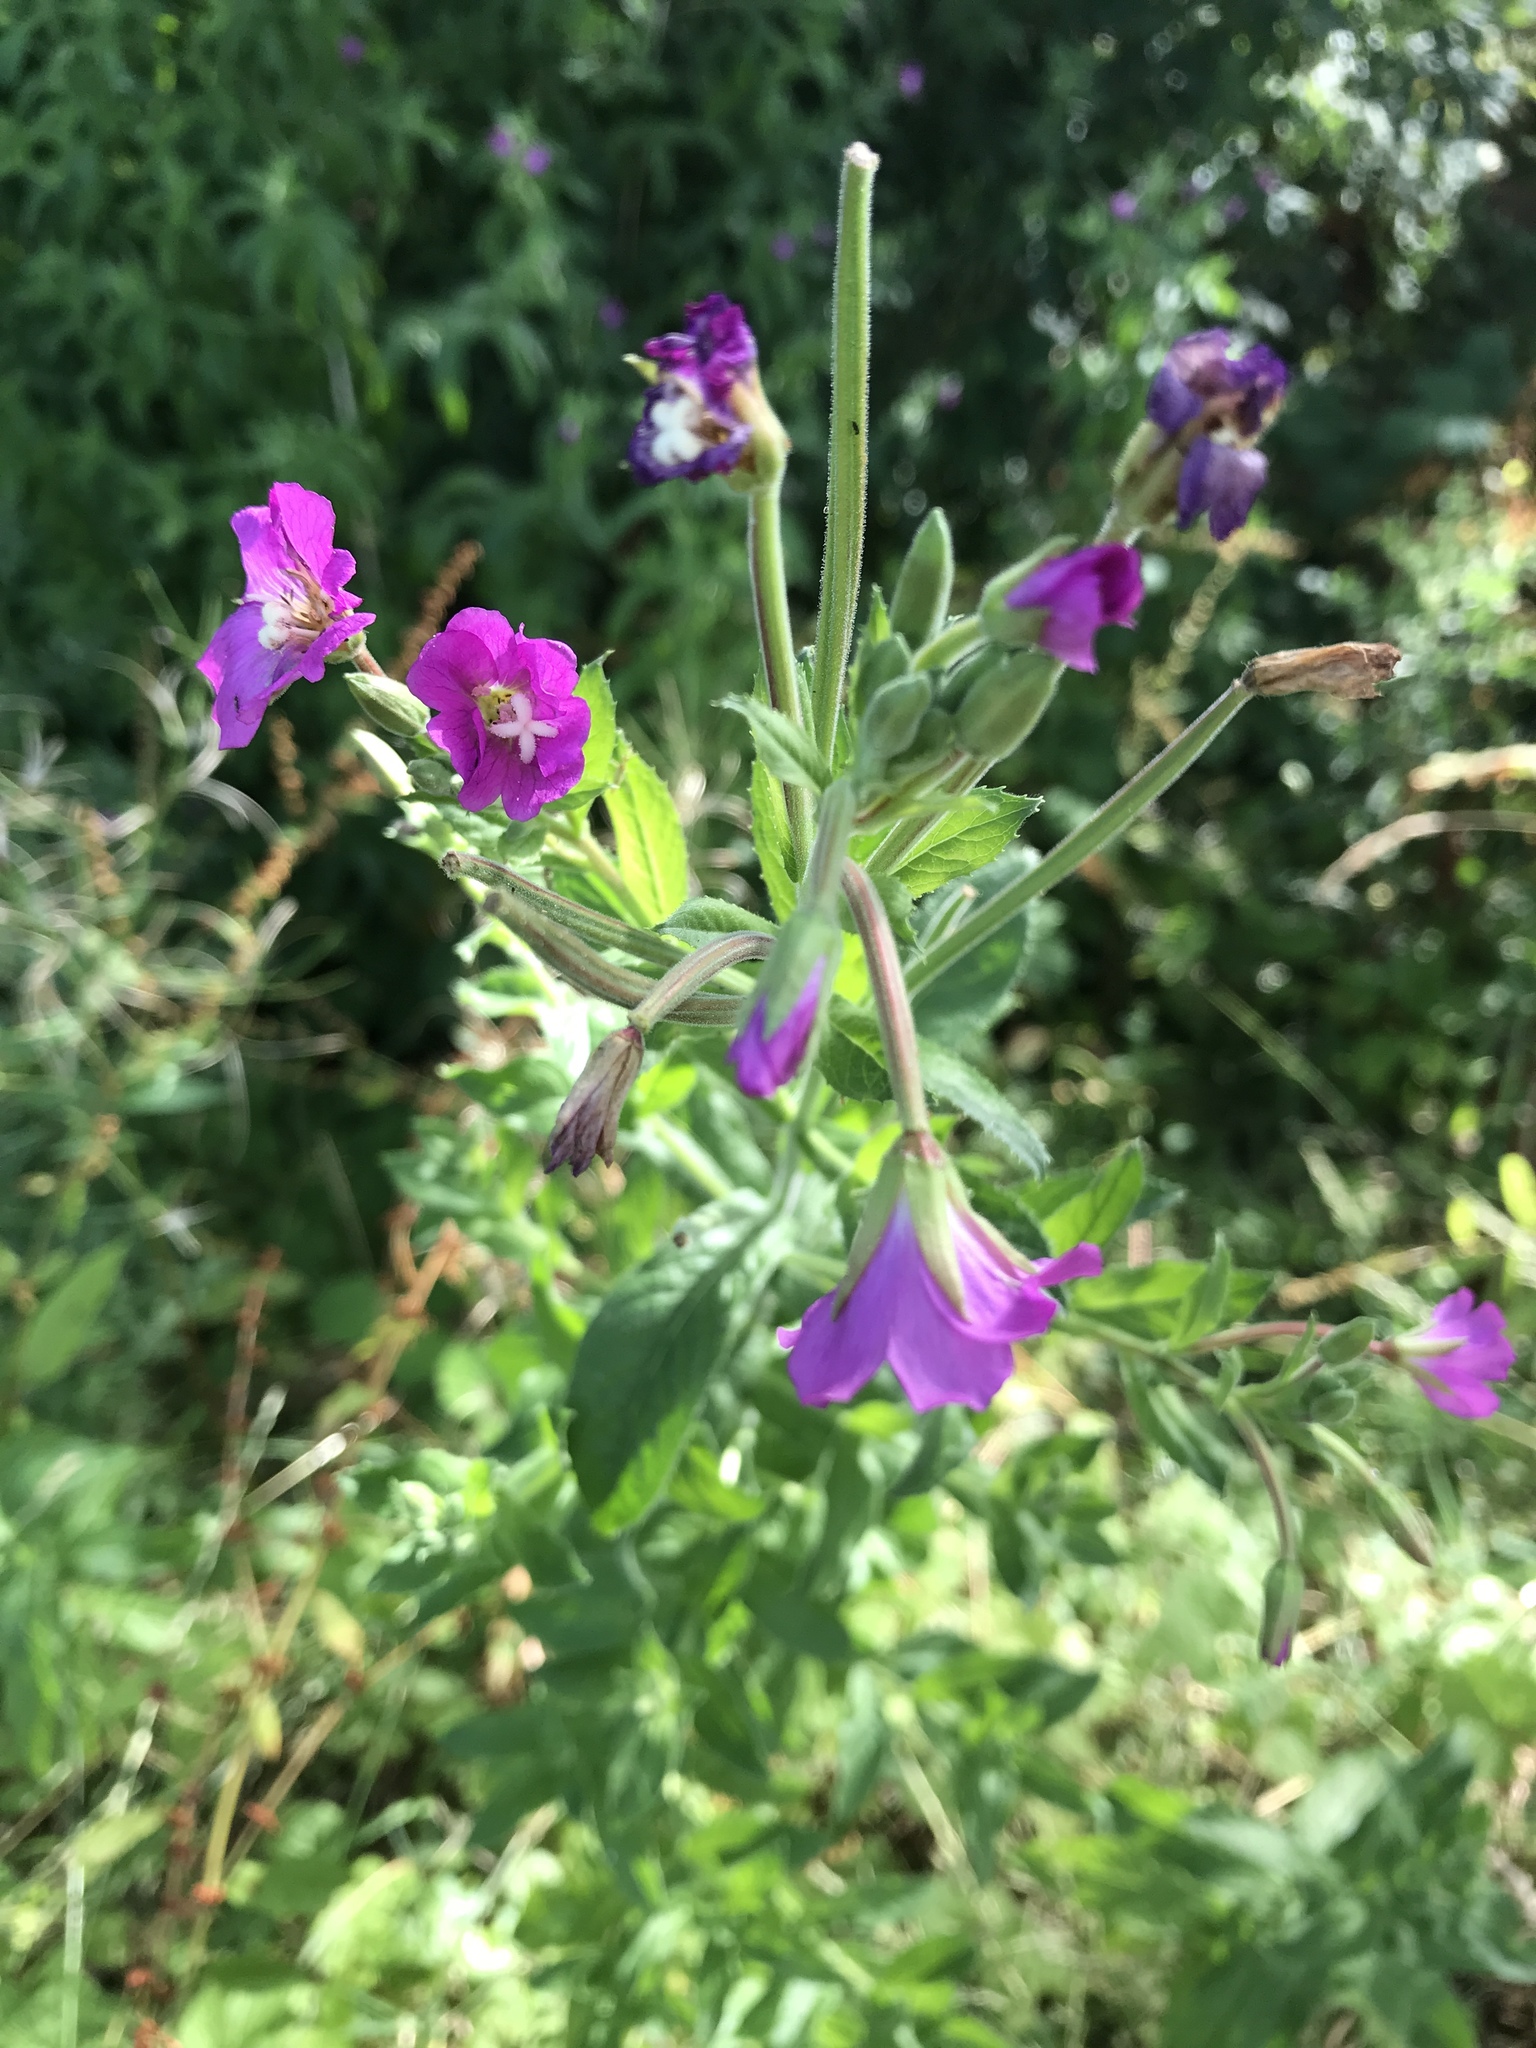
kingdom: Plantae
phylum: Tracheophyta
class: Magnoliopsida
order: Myrtales
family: Onagraceae
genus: Epilobium
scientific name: Epilobium hirsutum
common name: Great willowherb
